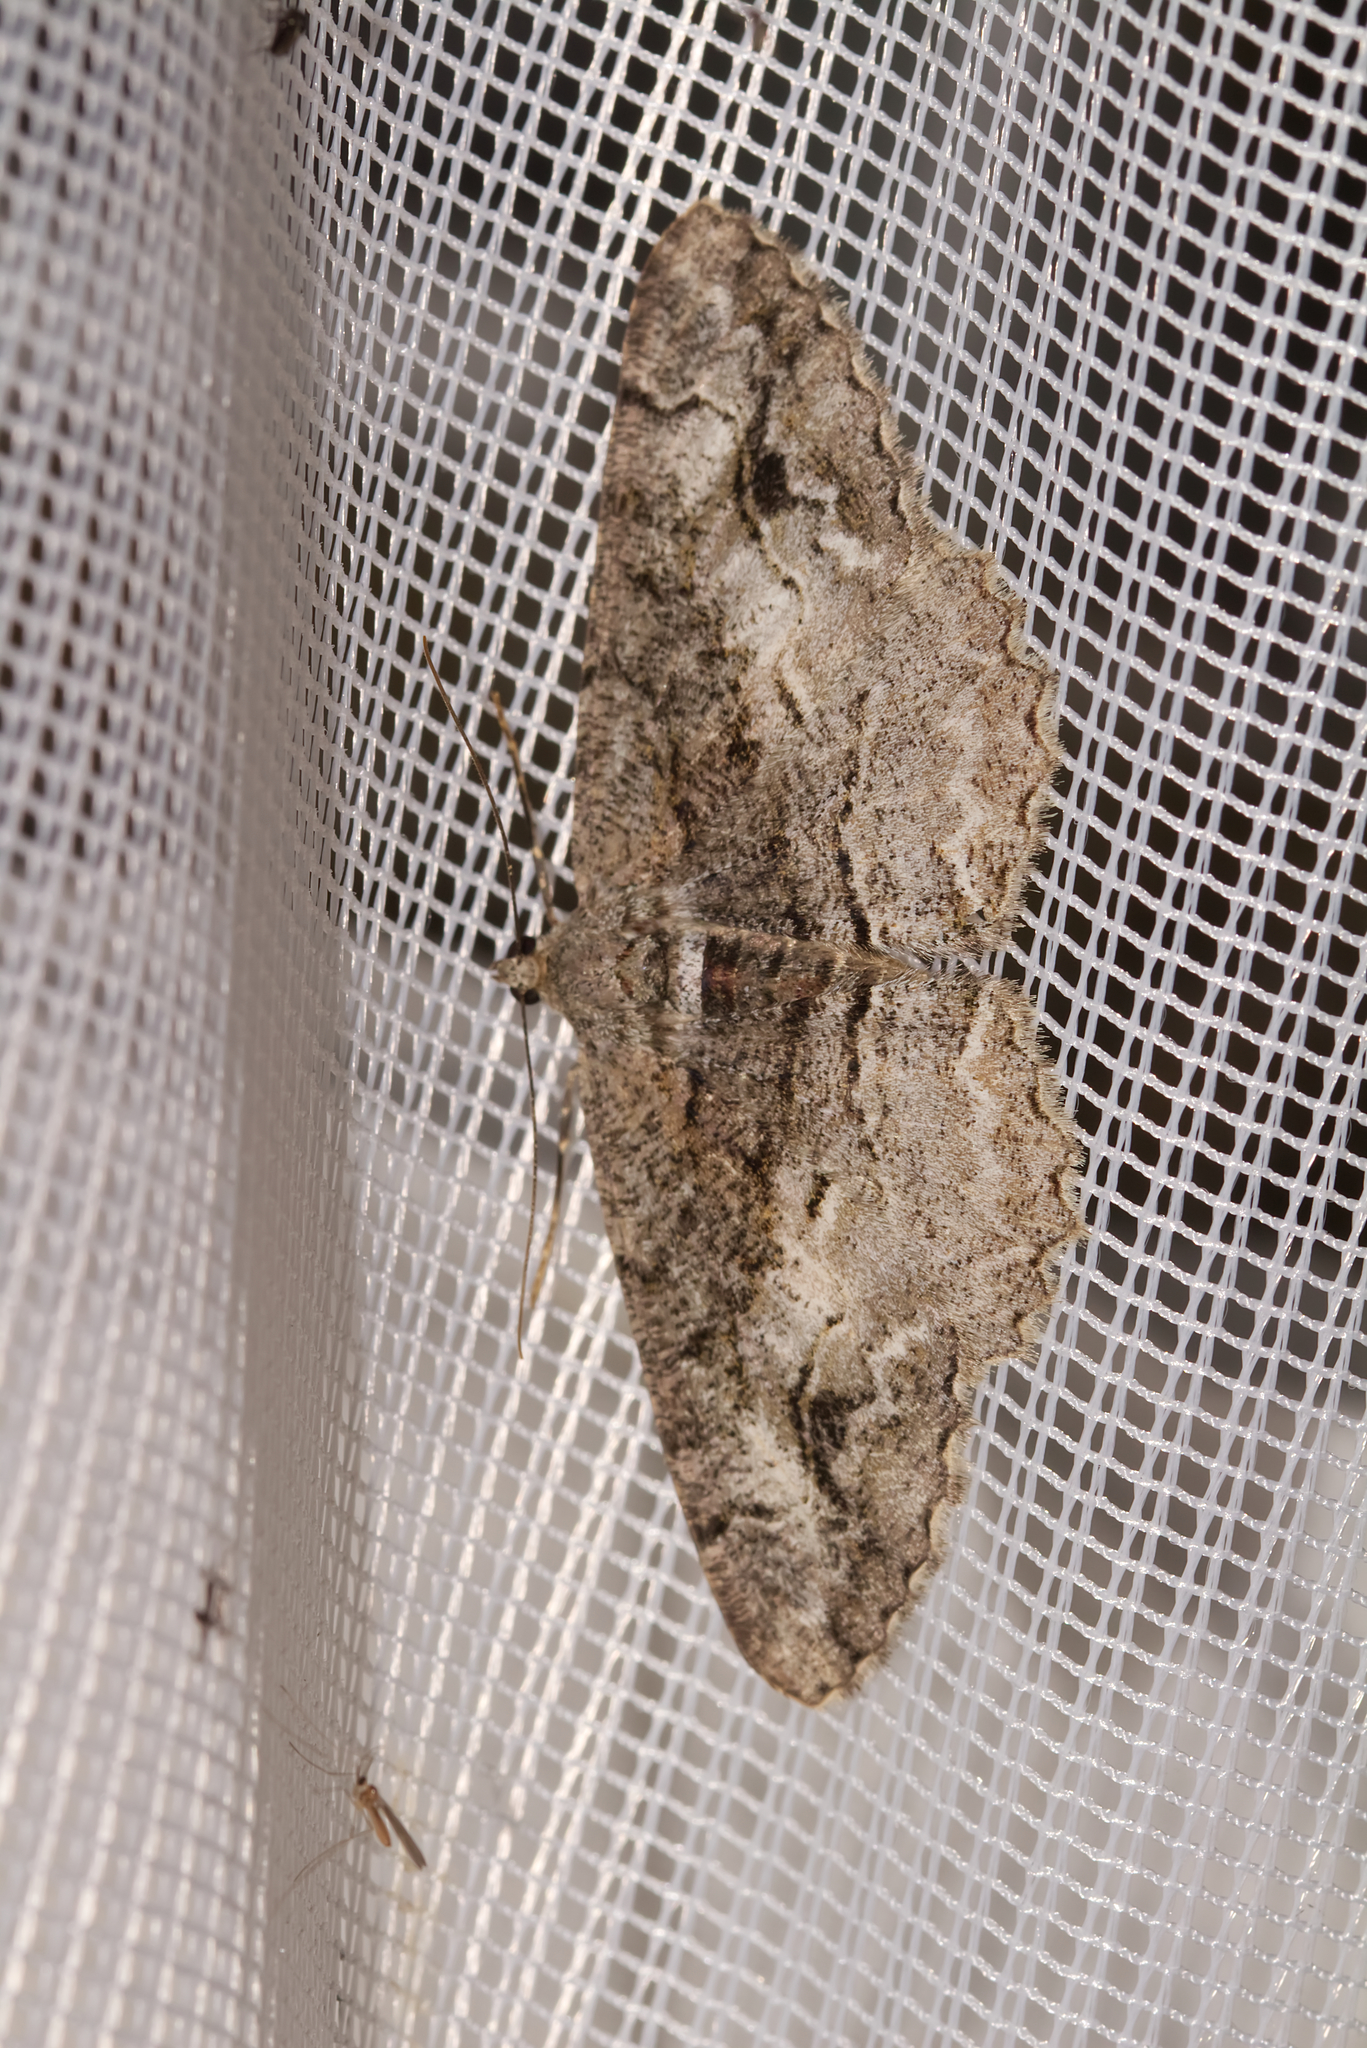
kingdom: Animalia
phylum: Arthropoda
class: Insecta
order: Lepidoptera
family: Geometridae
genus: Alcis
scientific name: Alcis repandata
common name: Mottled beauty
